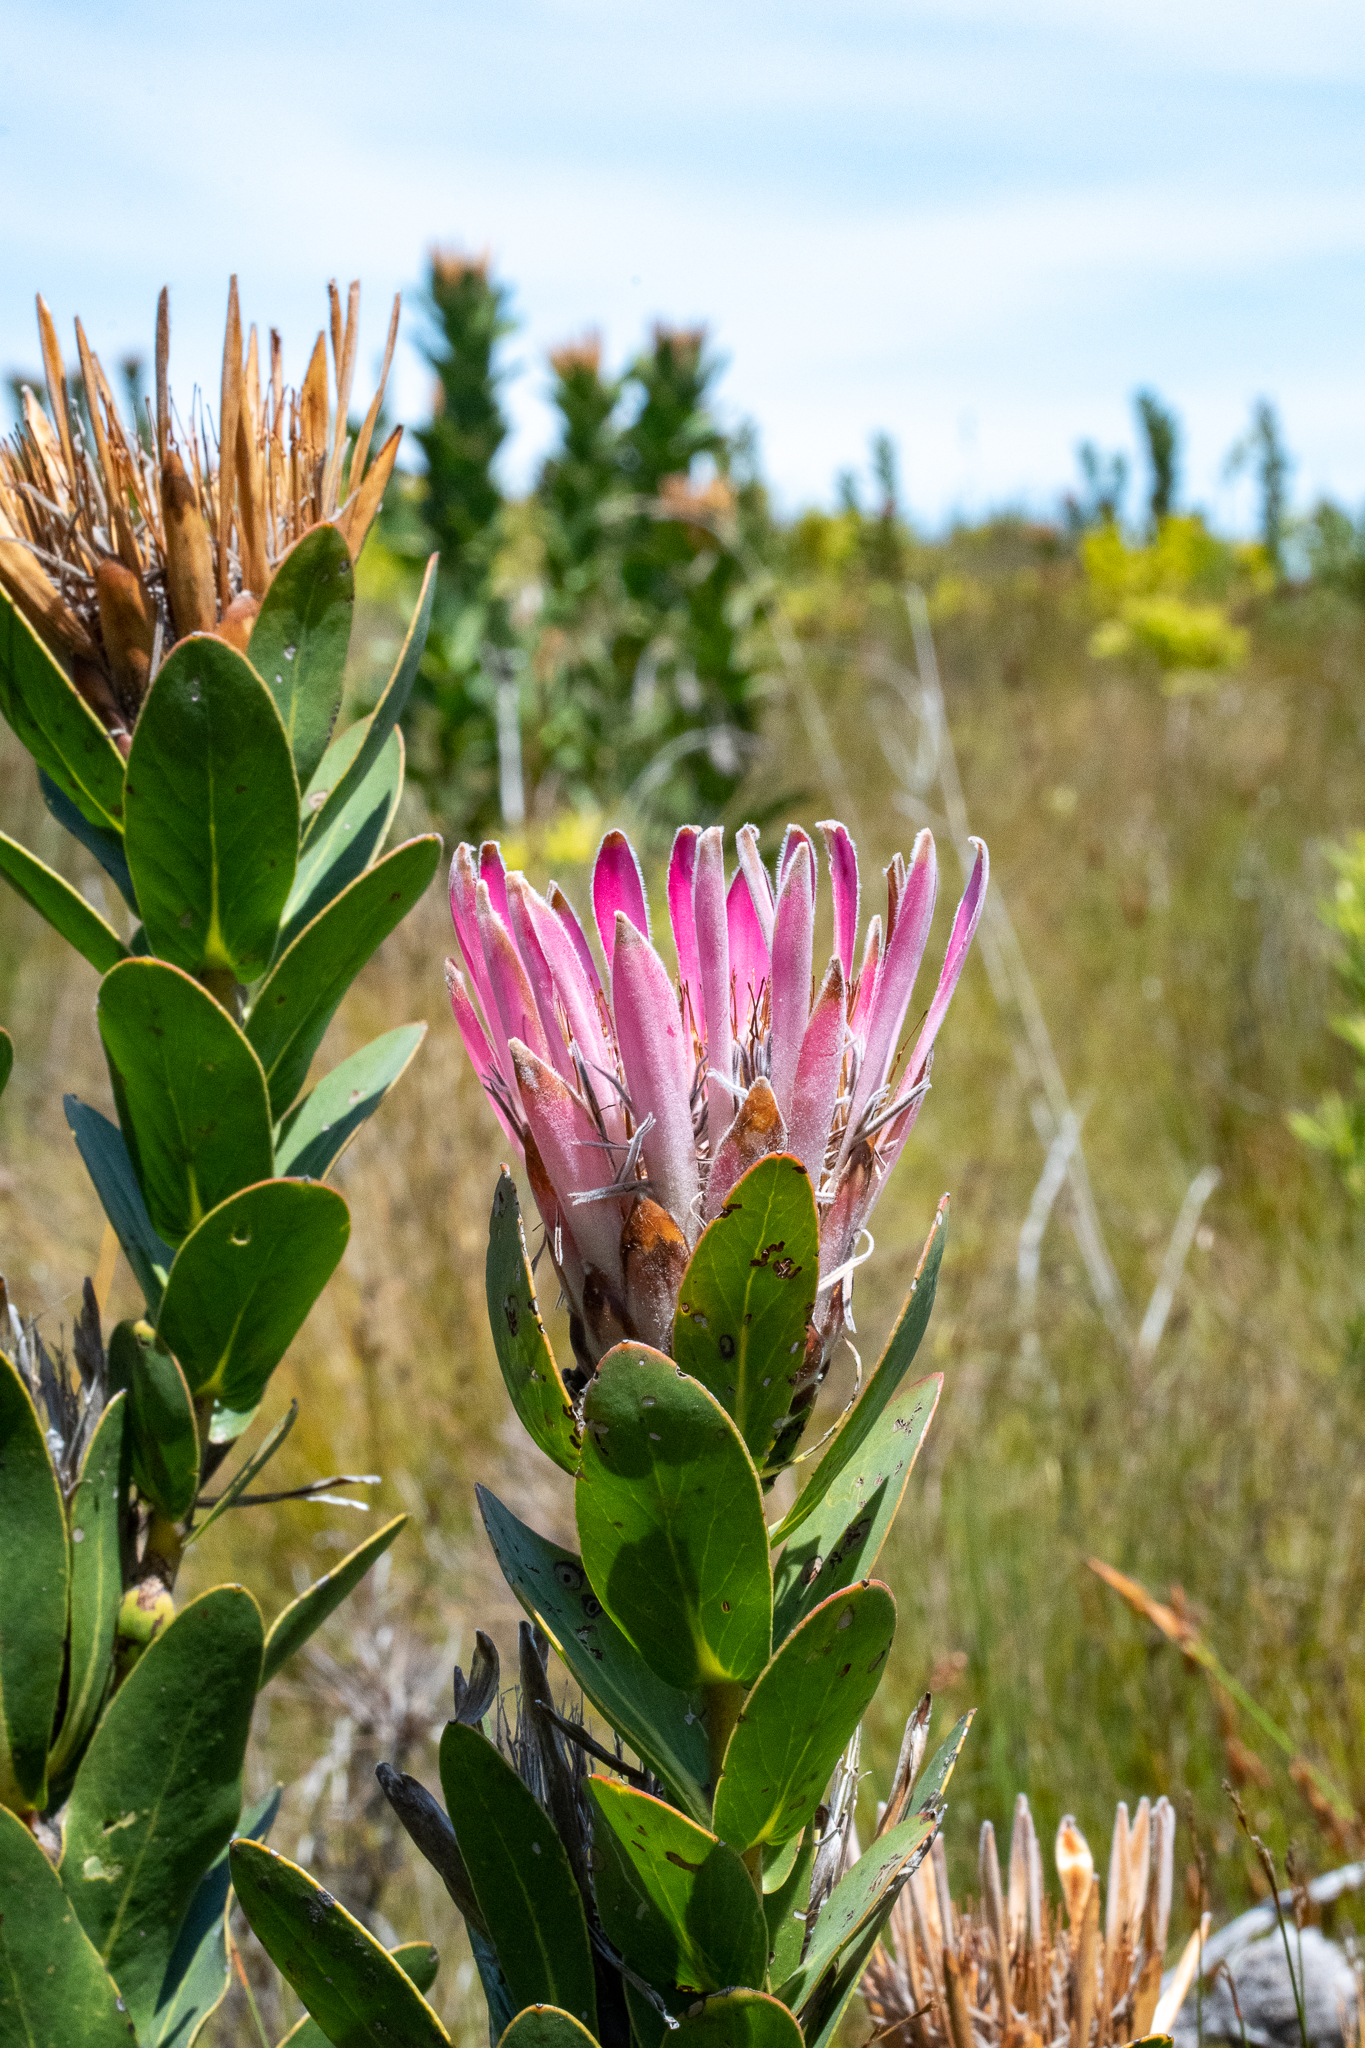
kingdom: Plantae
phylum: Tracheophyta
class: Magnoliopsida
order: Proteales
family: Proteaceae
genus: Protea
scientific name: Protea compacta
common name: Bot river protea
